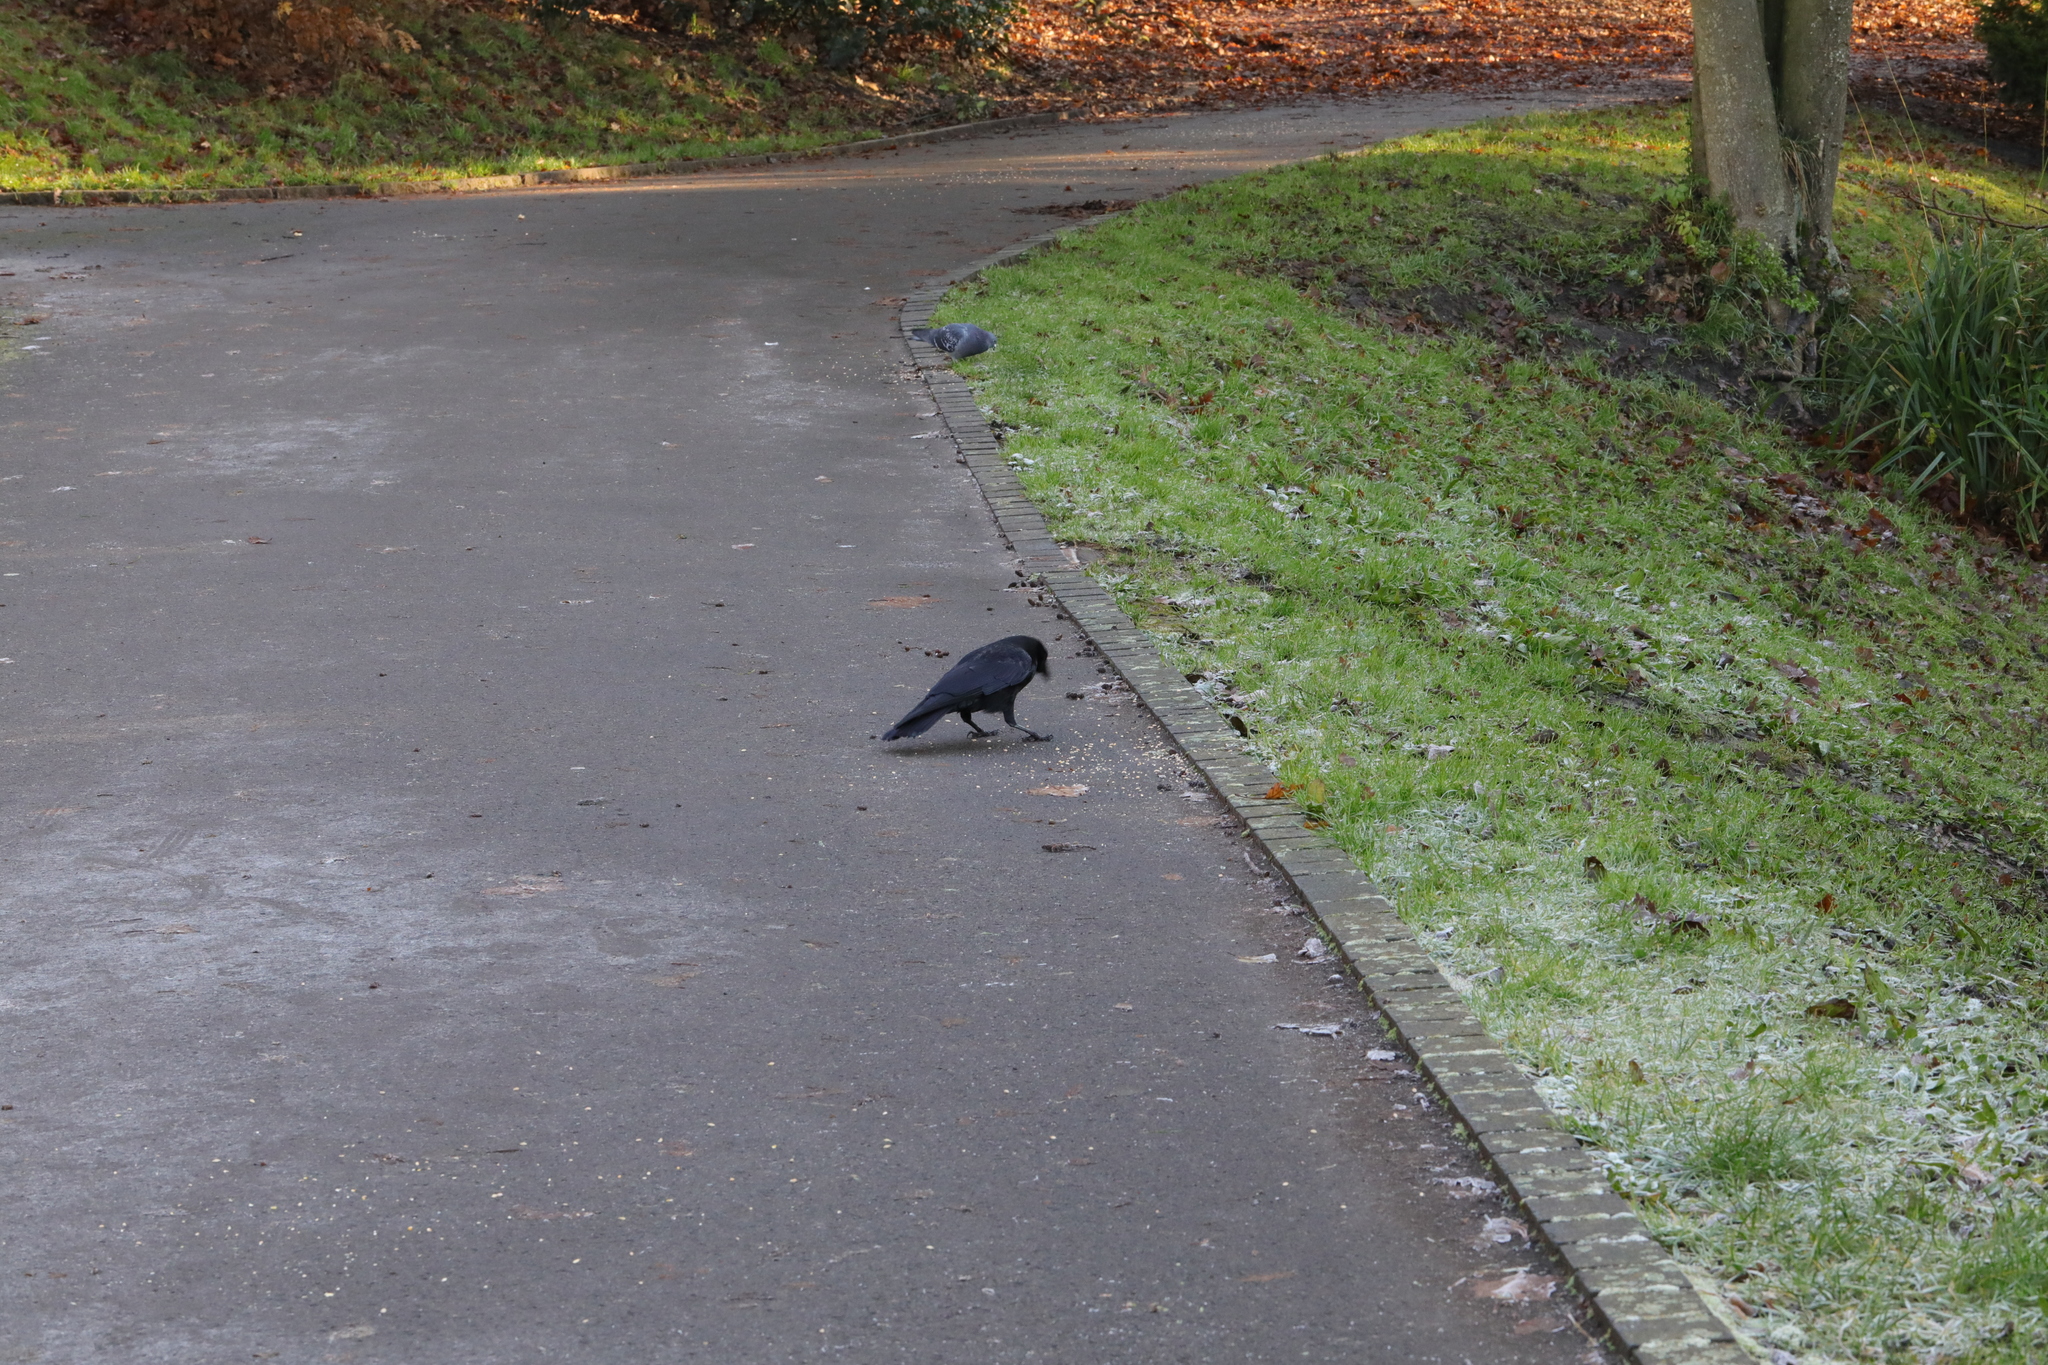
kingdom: Animalia
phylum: Chordata
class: Aves
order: Passeriformes
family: Corvidae
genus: Corvus
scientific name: Corvus corone
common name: Carrion crow
